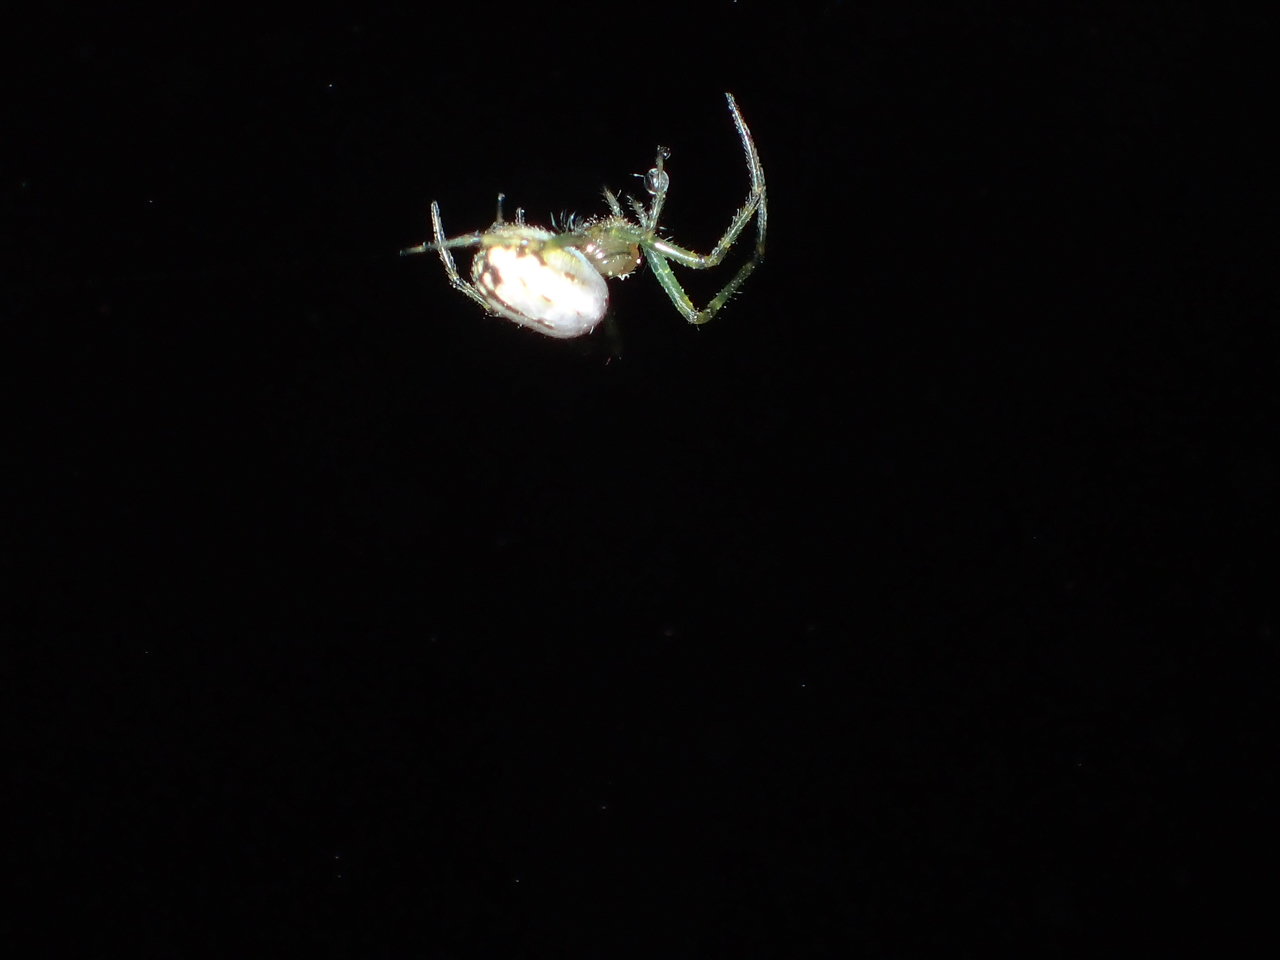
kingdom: Animalia
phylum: Arthropoda
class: Arachnida
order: Araneae
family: Tetragnathidae
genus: Leucauge
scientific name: Leucauge venusta
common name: Longjawed orb weavers
